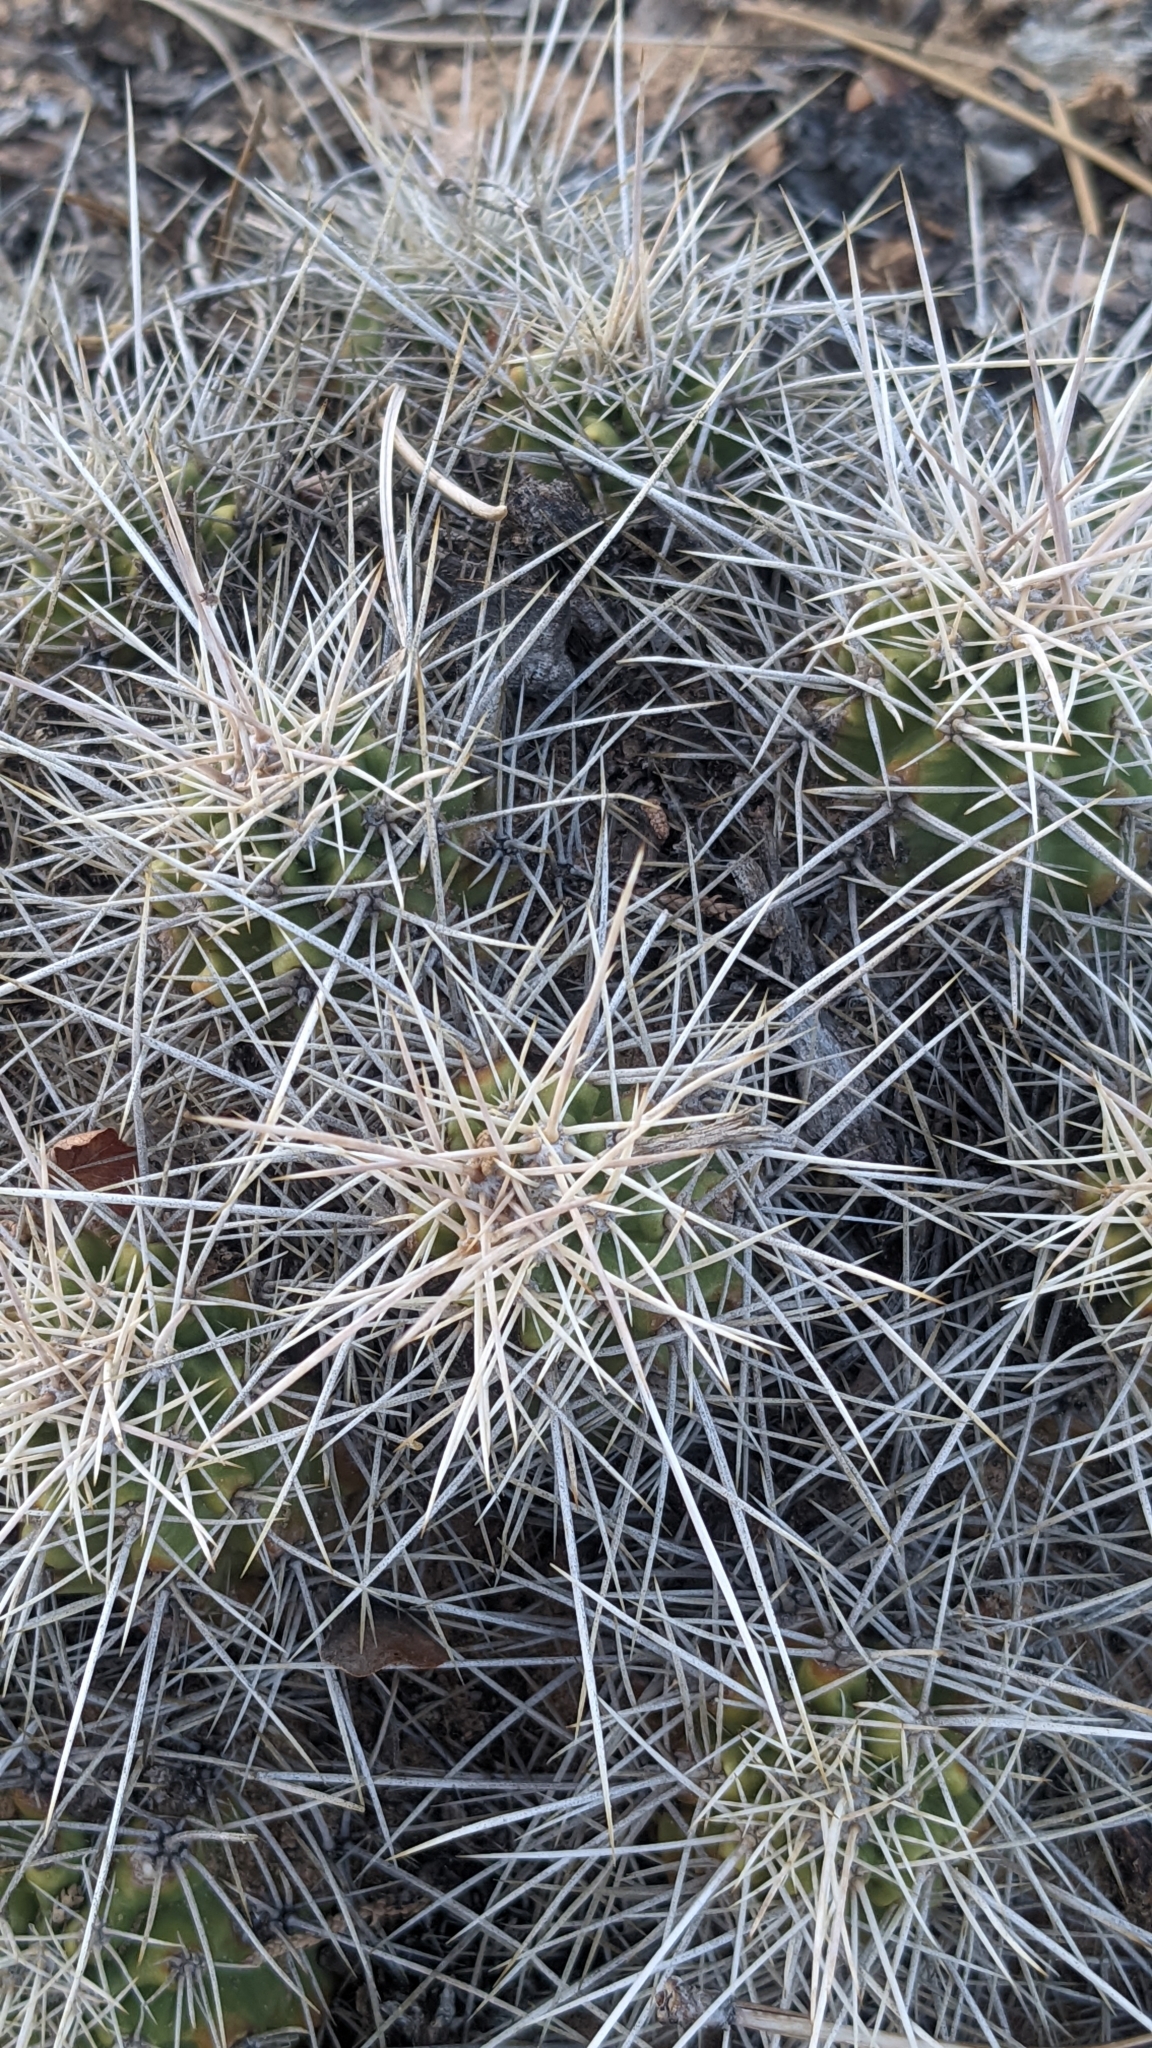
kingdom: Plantae
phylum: Tracheophyta
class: Magnoliopsida
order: Caryophyllales
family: Cactaceae
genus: Echinocereus
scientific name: Echinocereus triglochidiatus
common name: Claretcup hedgehog
